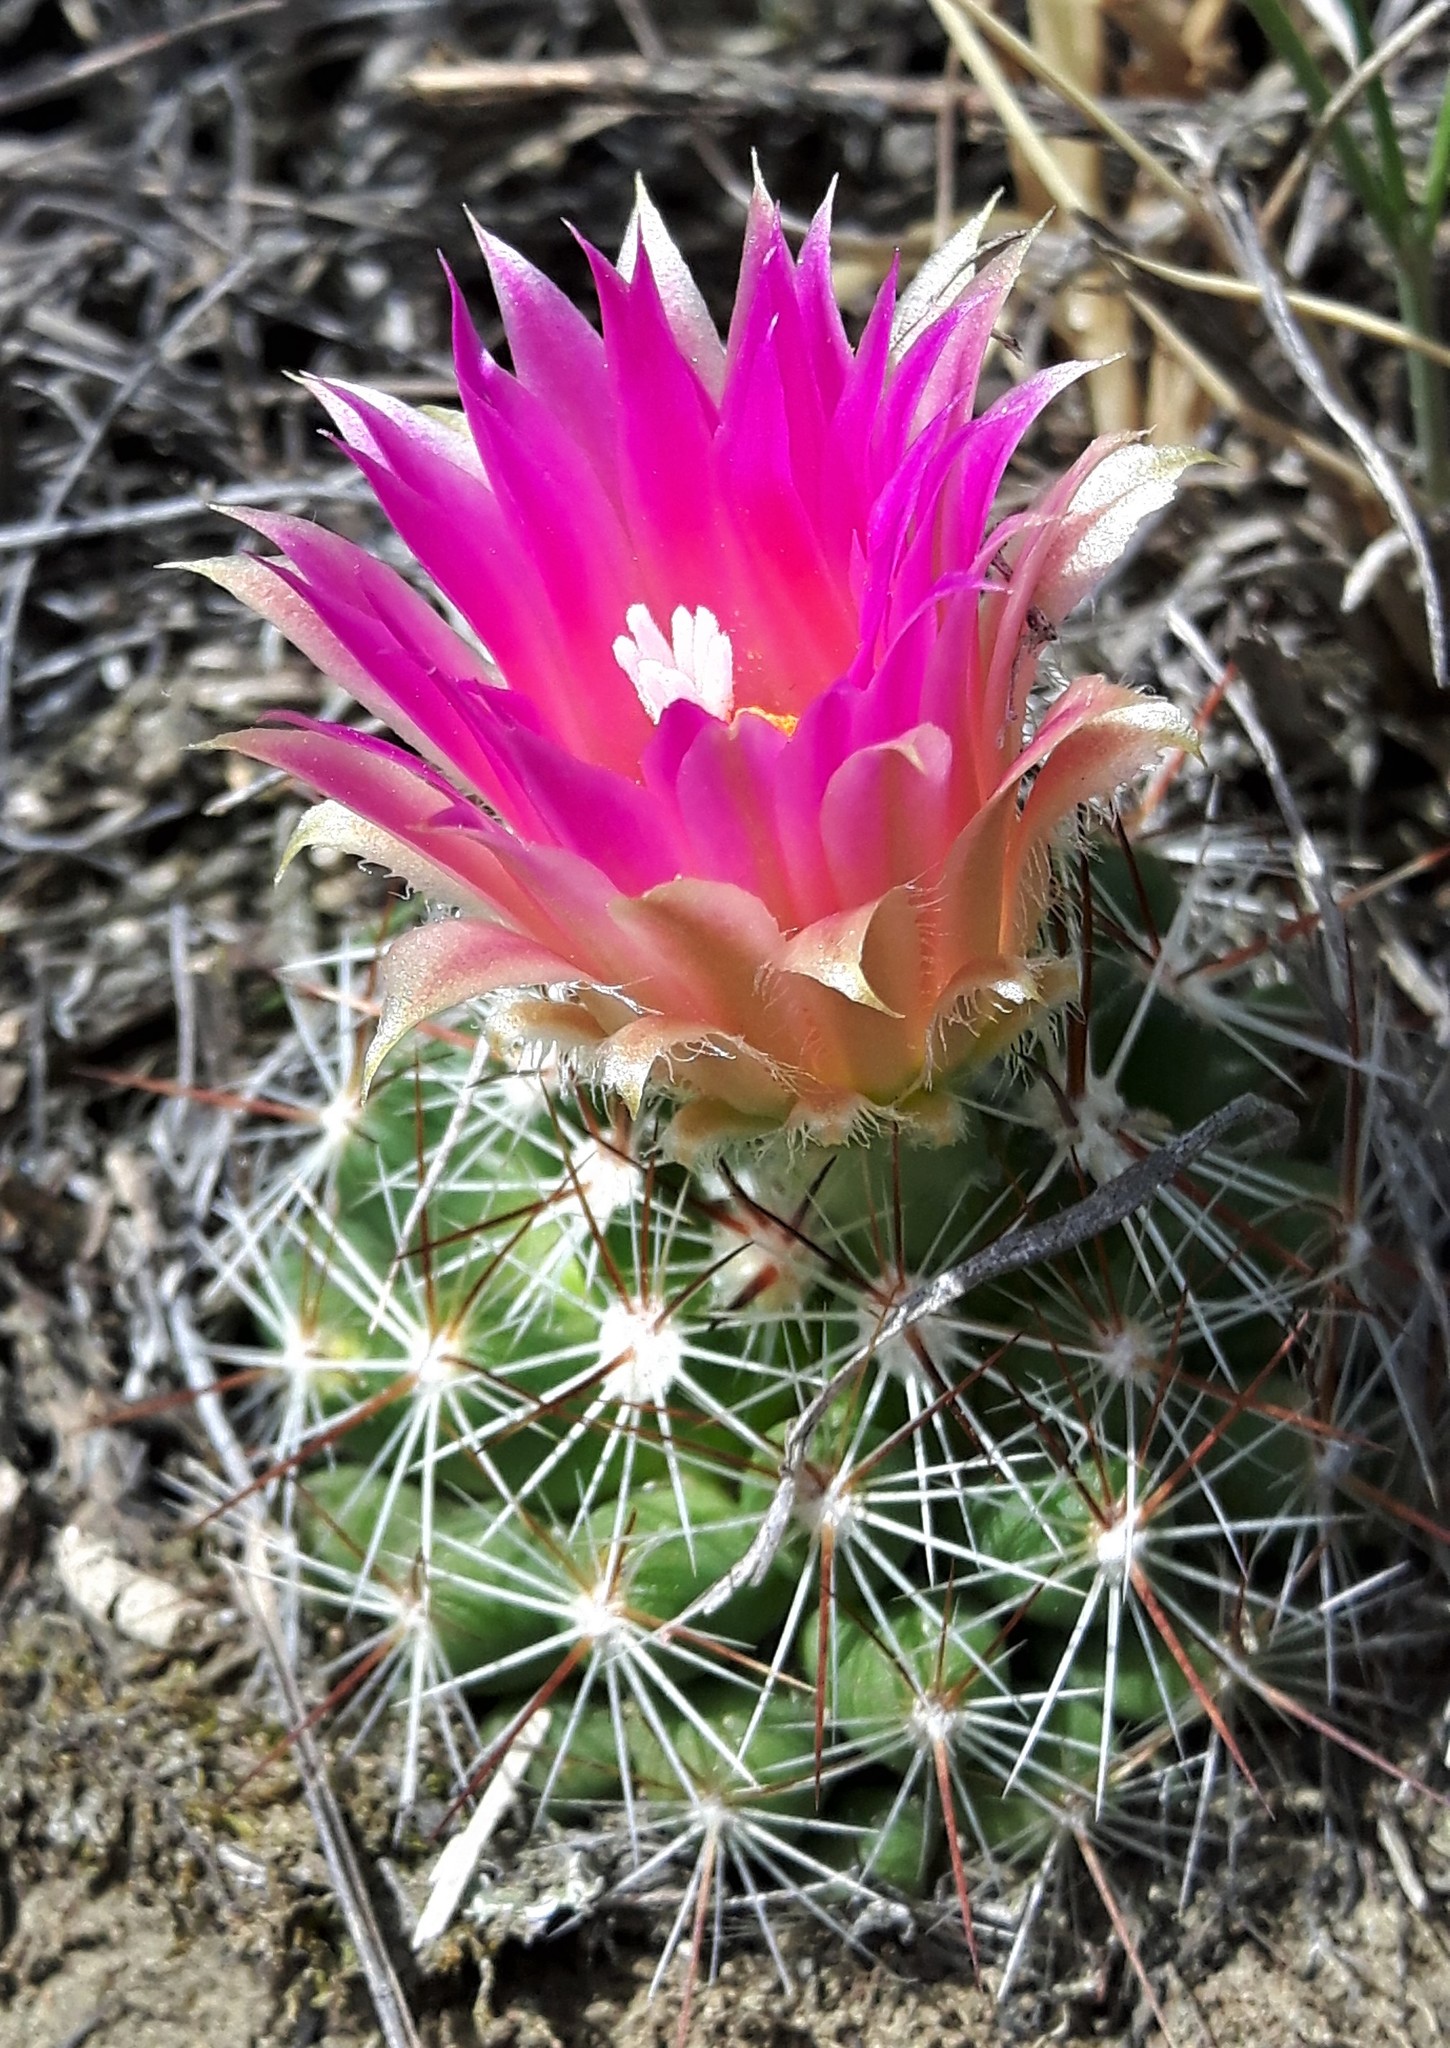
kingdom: Plantae
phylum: Tracheophyta
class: Magnoliopsida
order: Caryophyllales
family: Cactaceae
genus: Pelecyphora
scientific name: Pelecyphora vivipara
